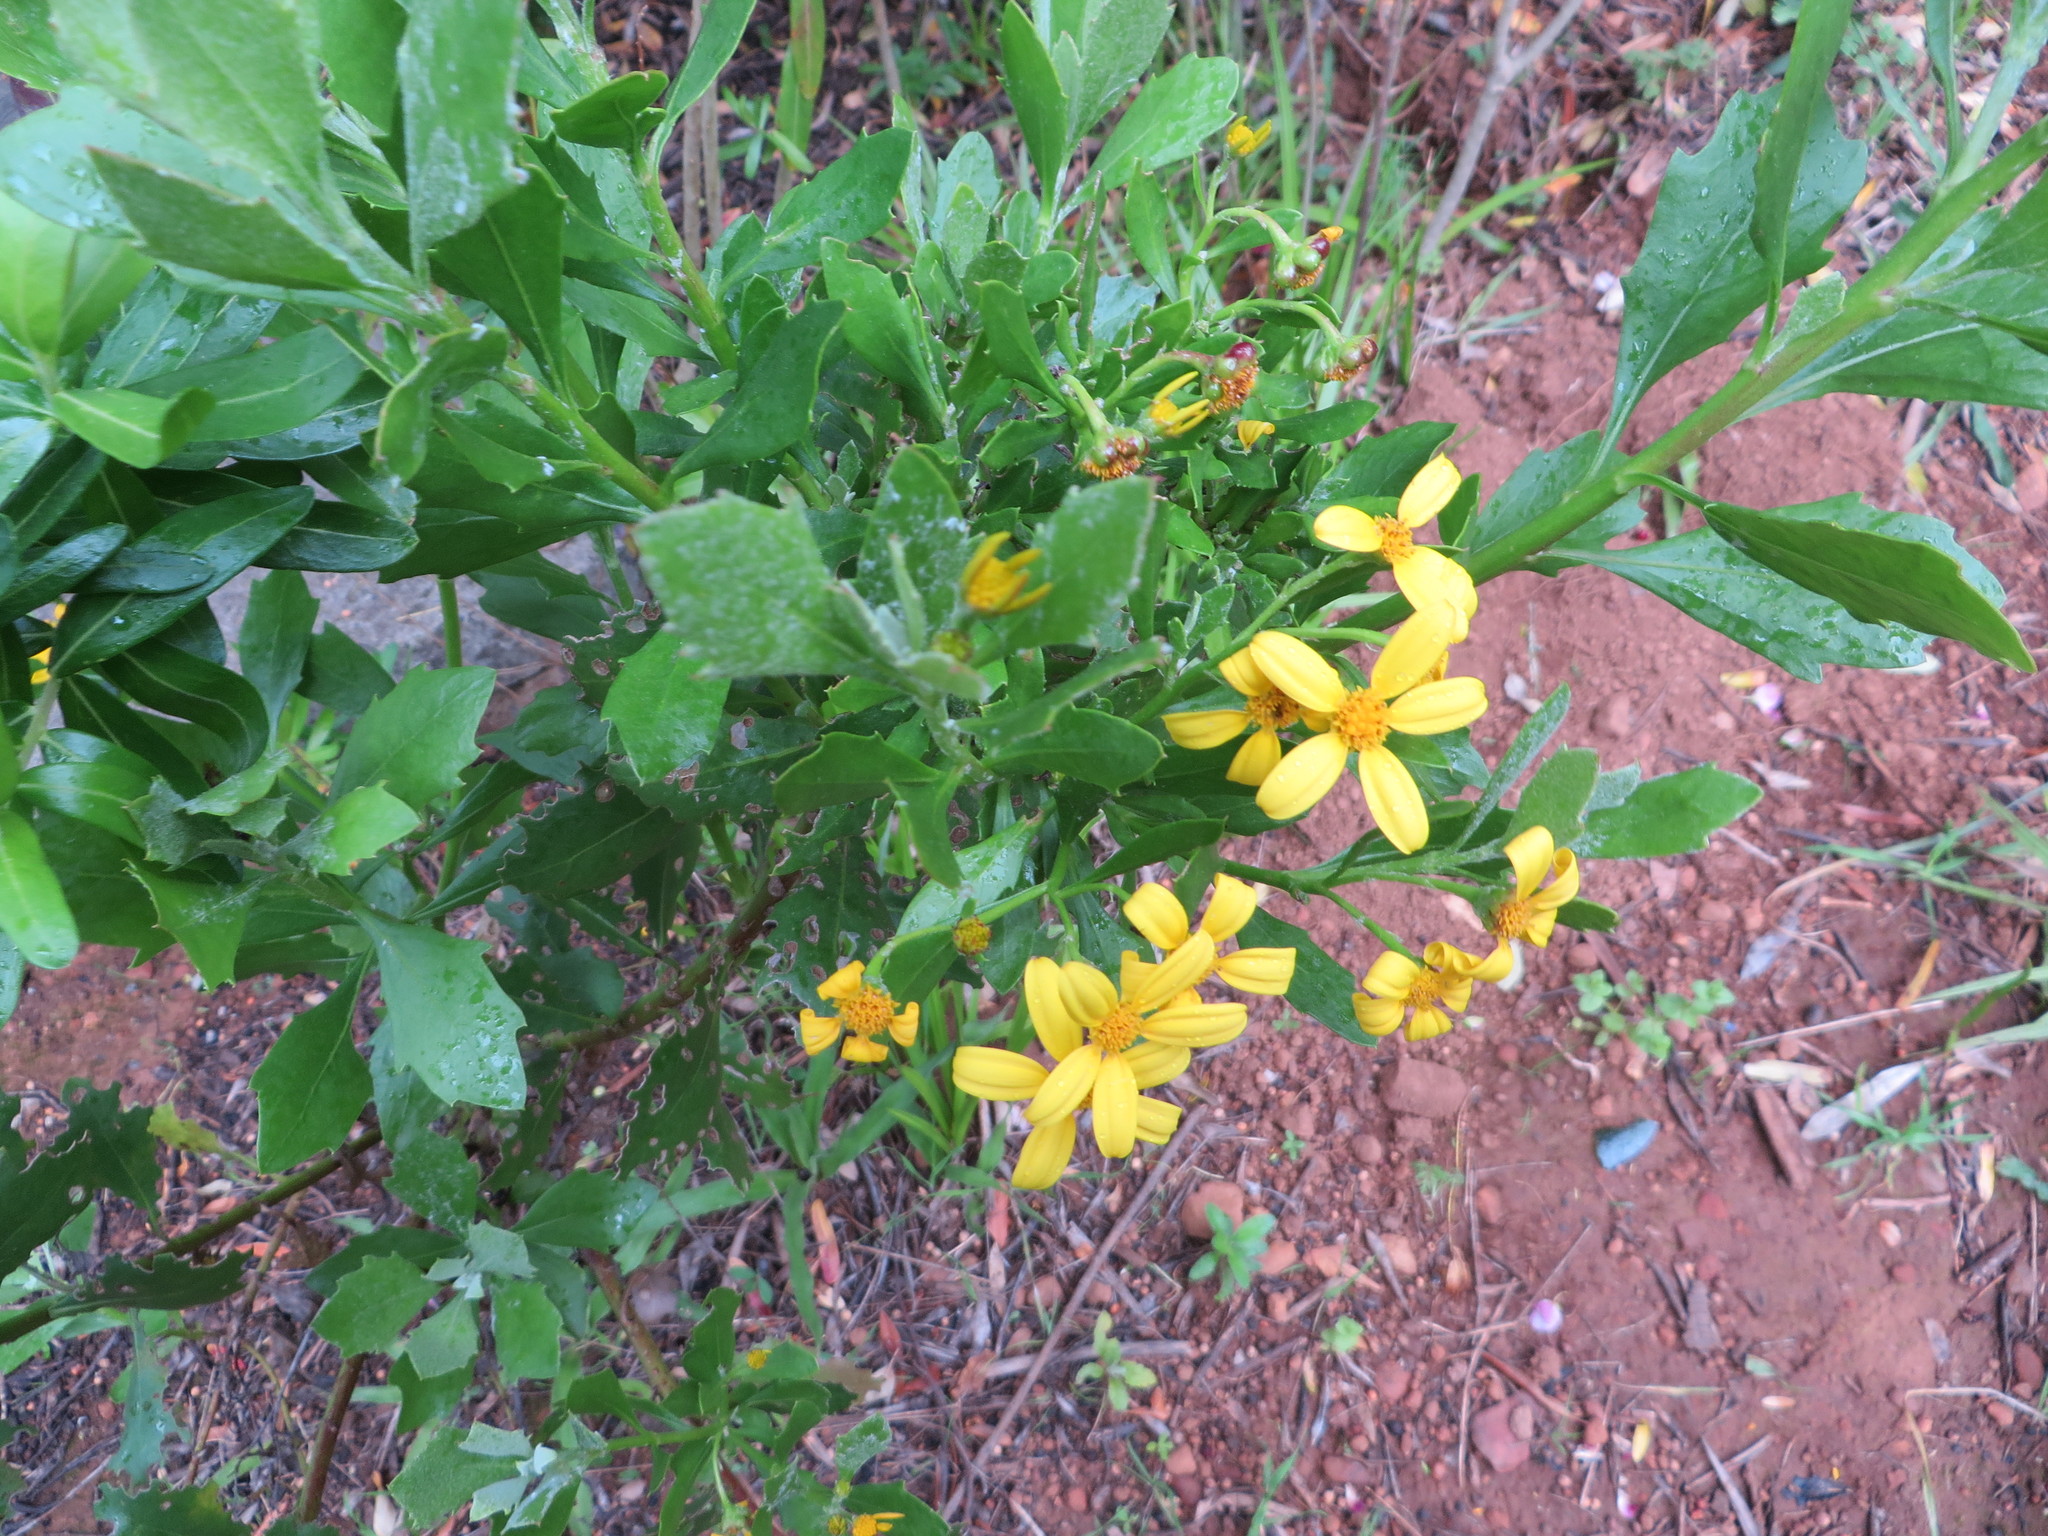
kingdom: Plantae
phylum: Tracheophyta
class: Magnoliopsida
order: Asterales
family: Asteraceae
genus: Osteospermum
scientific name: Osteospermum moniliferum
